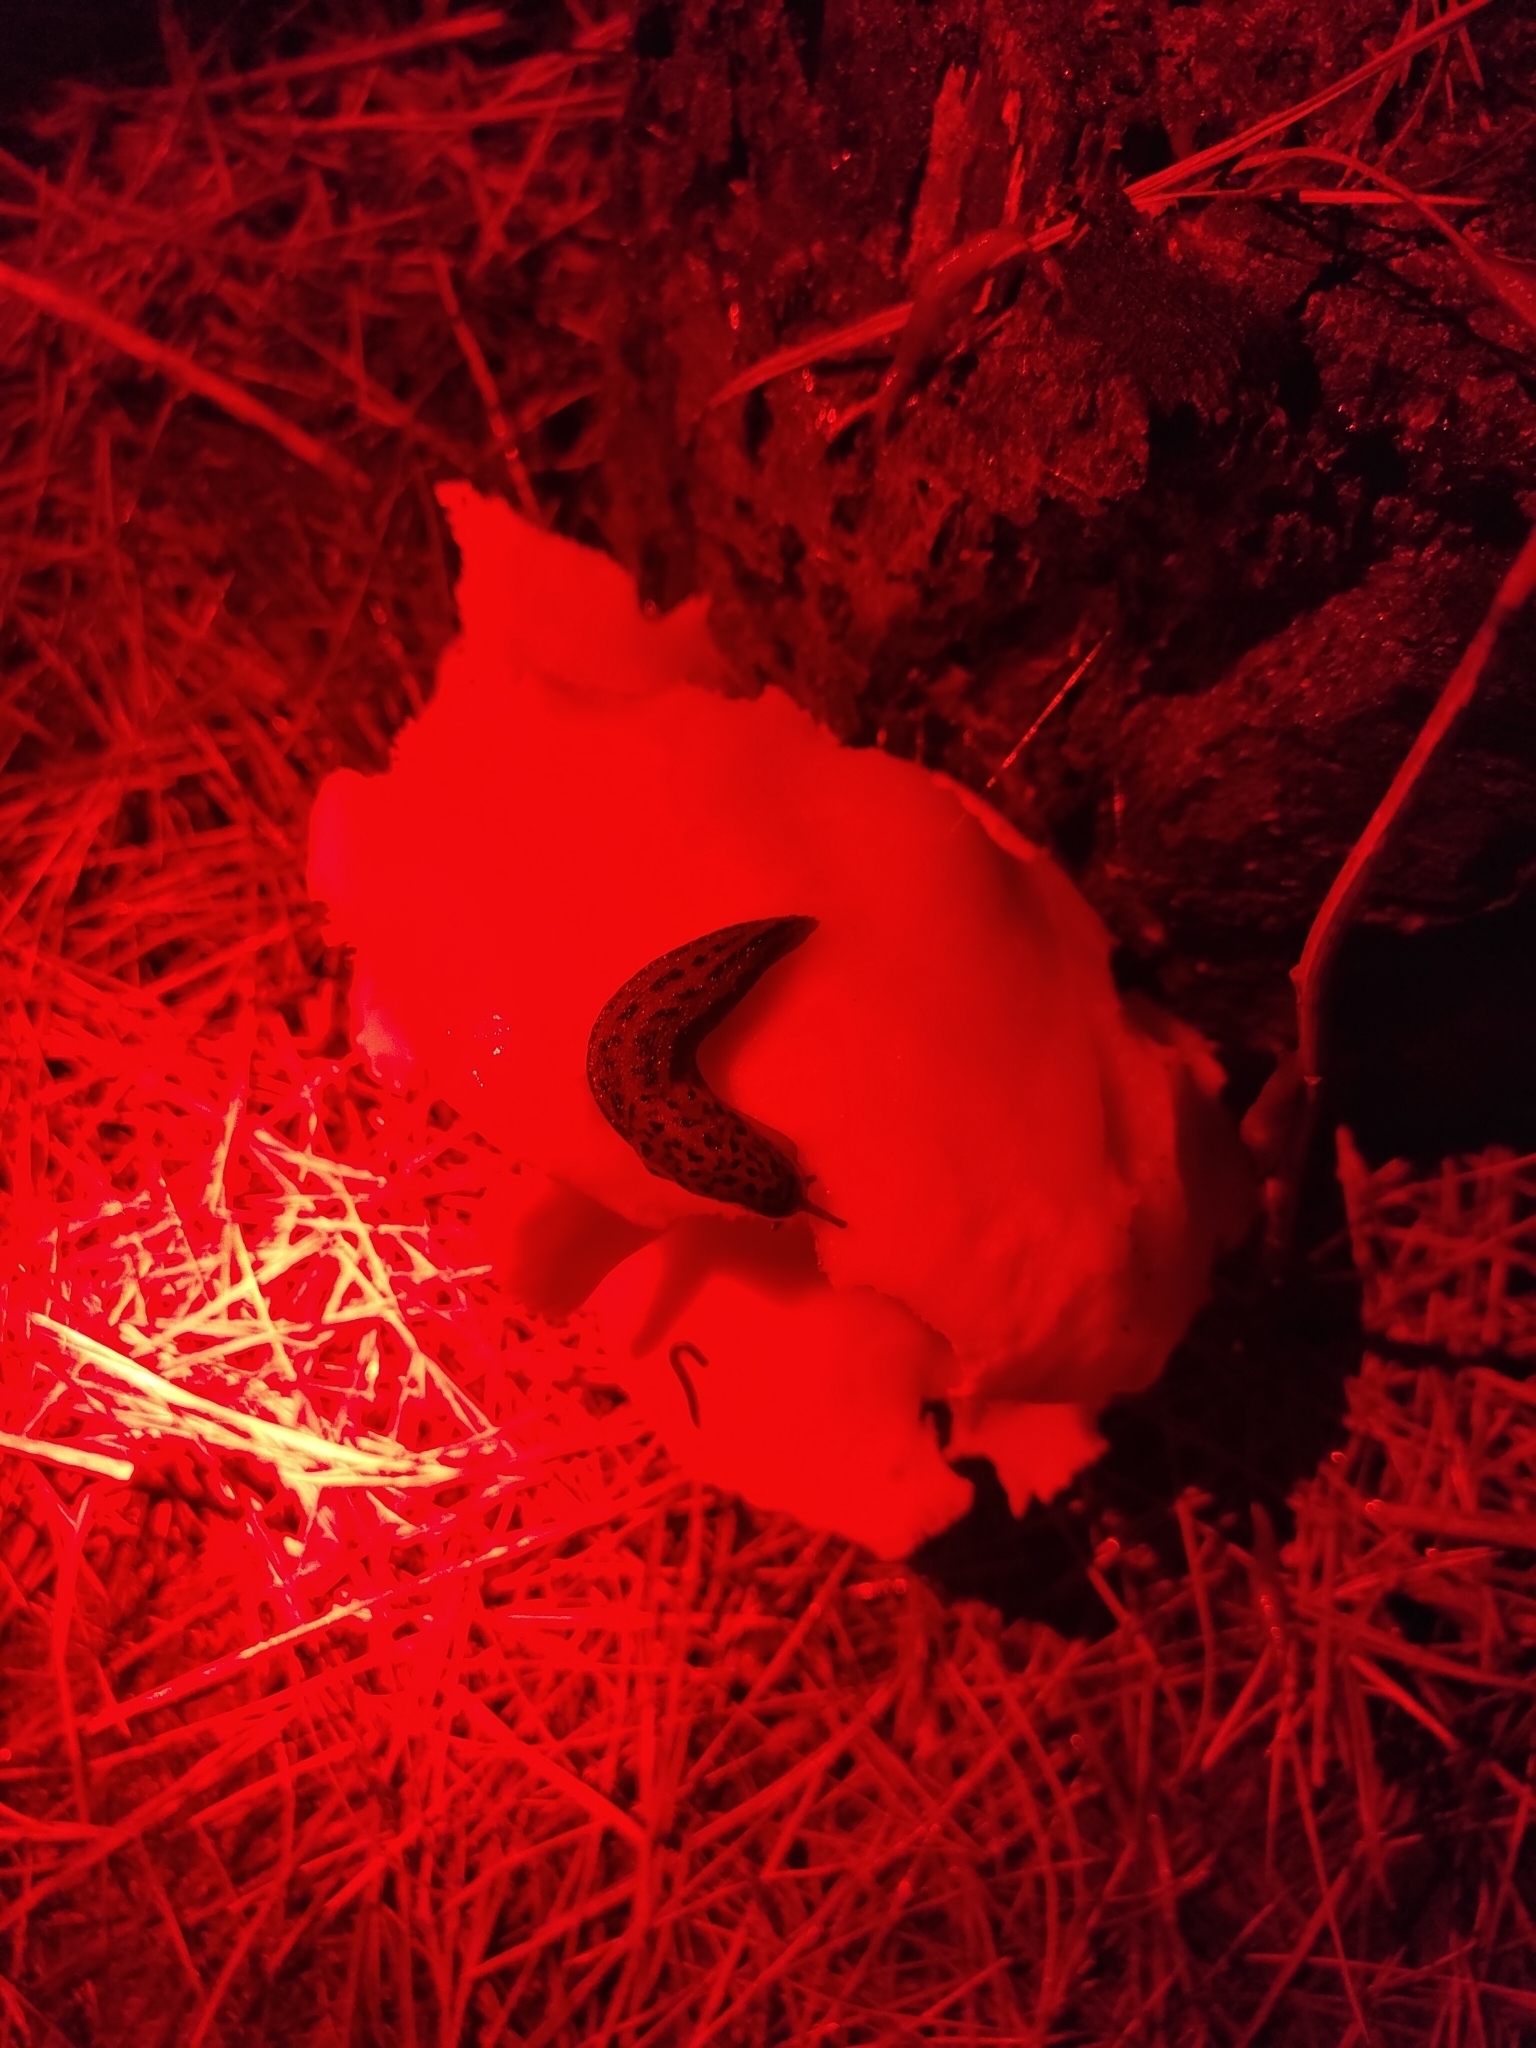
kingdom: Animalia
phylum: Mollusca
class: Gastropoda
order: Stylommatophora
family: Limacidae
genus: Limax
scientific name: Limax maximus
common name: Great grey slug
